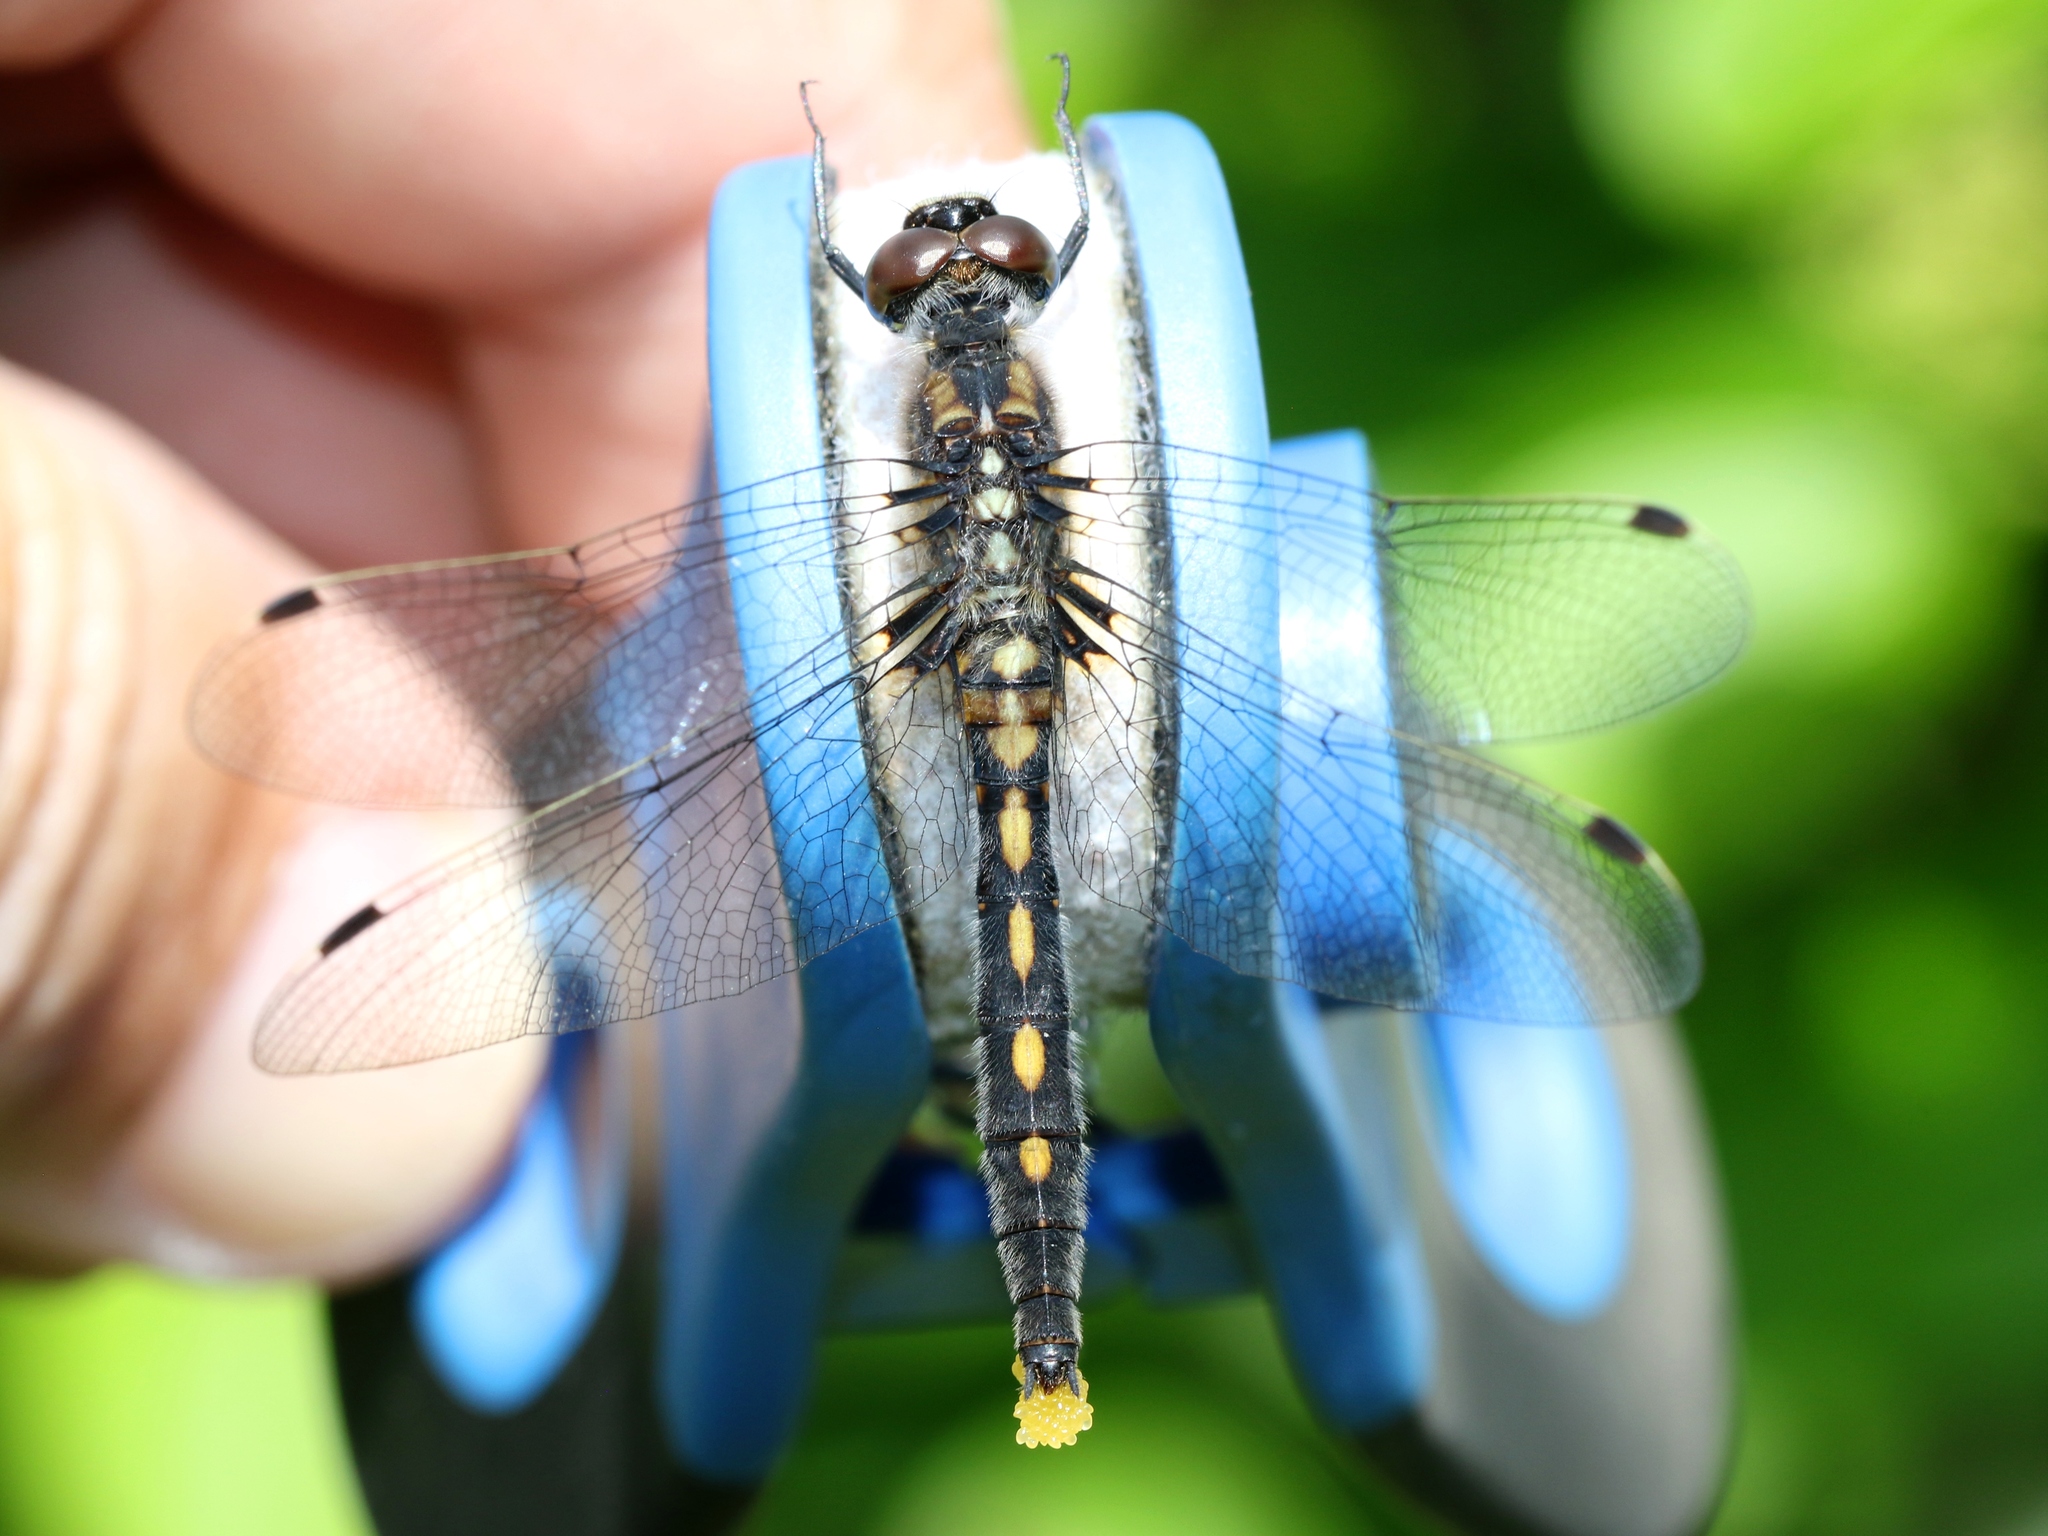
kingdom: Animalia
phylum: Arthropoda
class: Insecta
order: Odonata
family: Libellulidae
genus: Leucorrhinia
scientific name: Leucorrhinia proxima
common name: Belted whiteface
